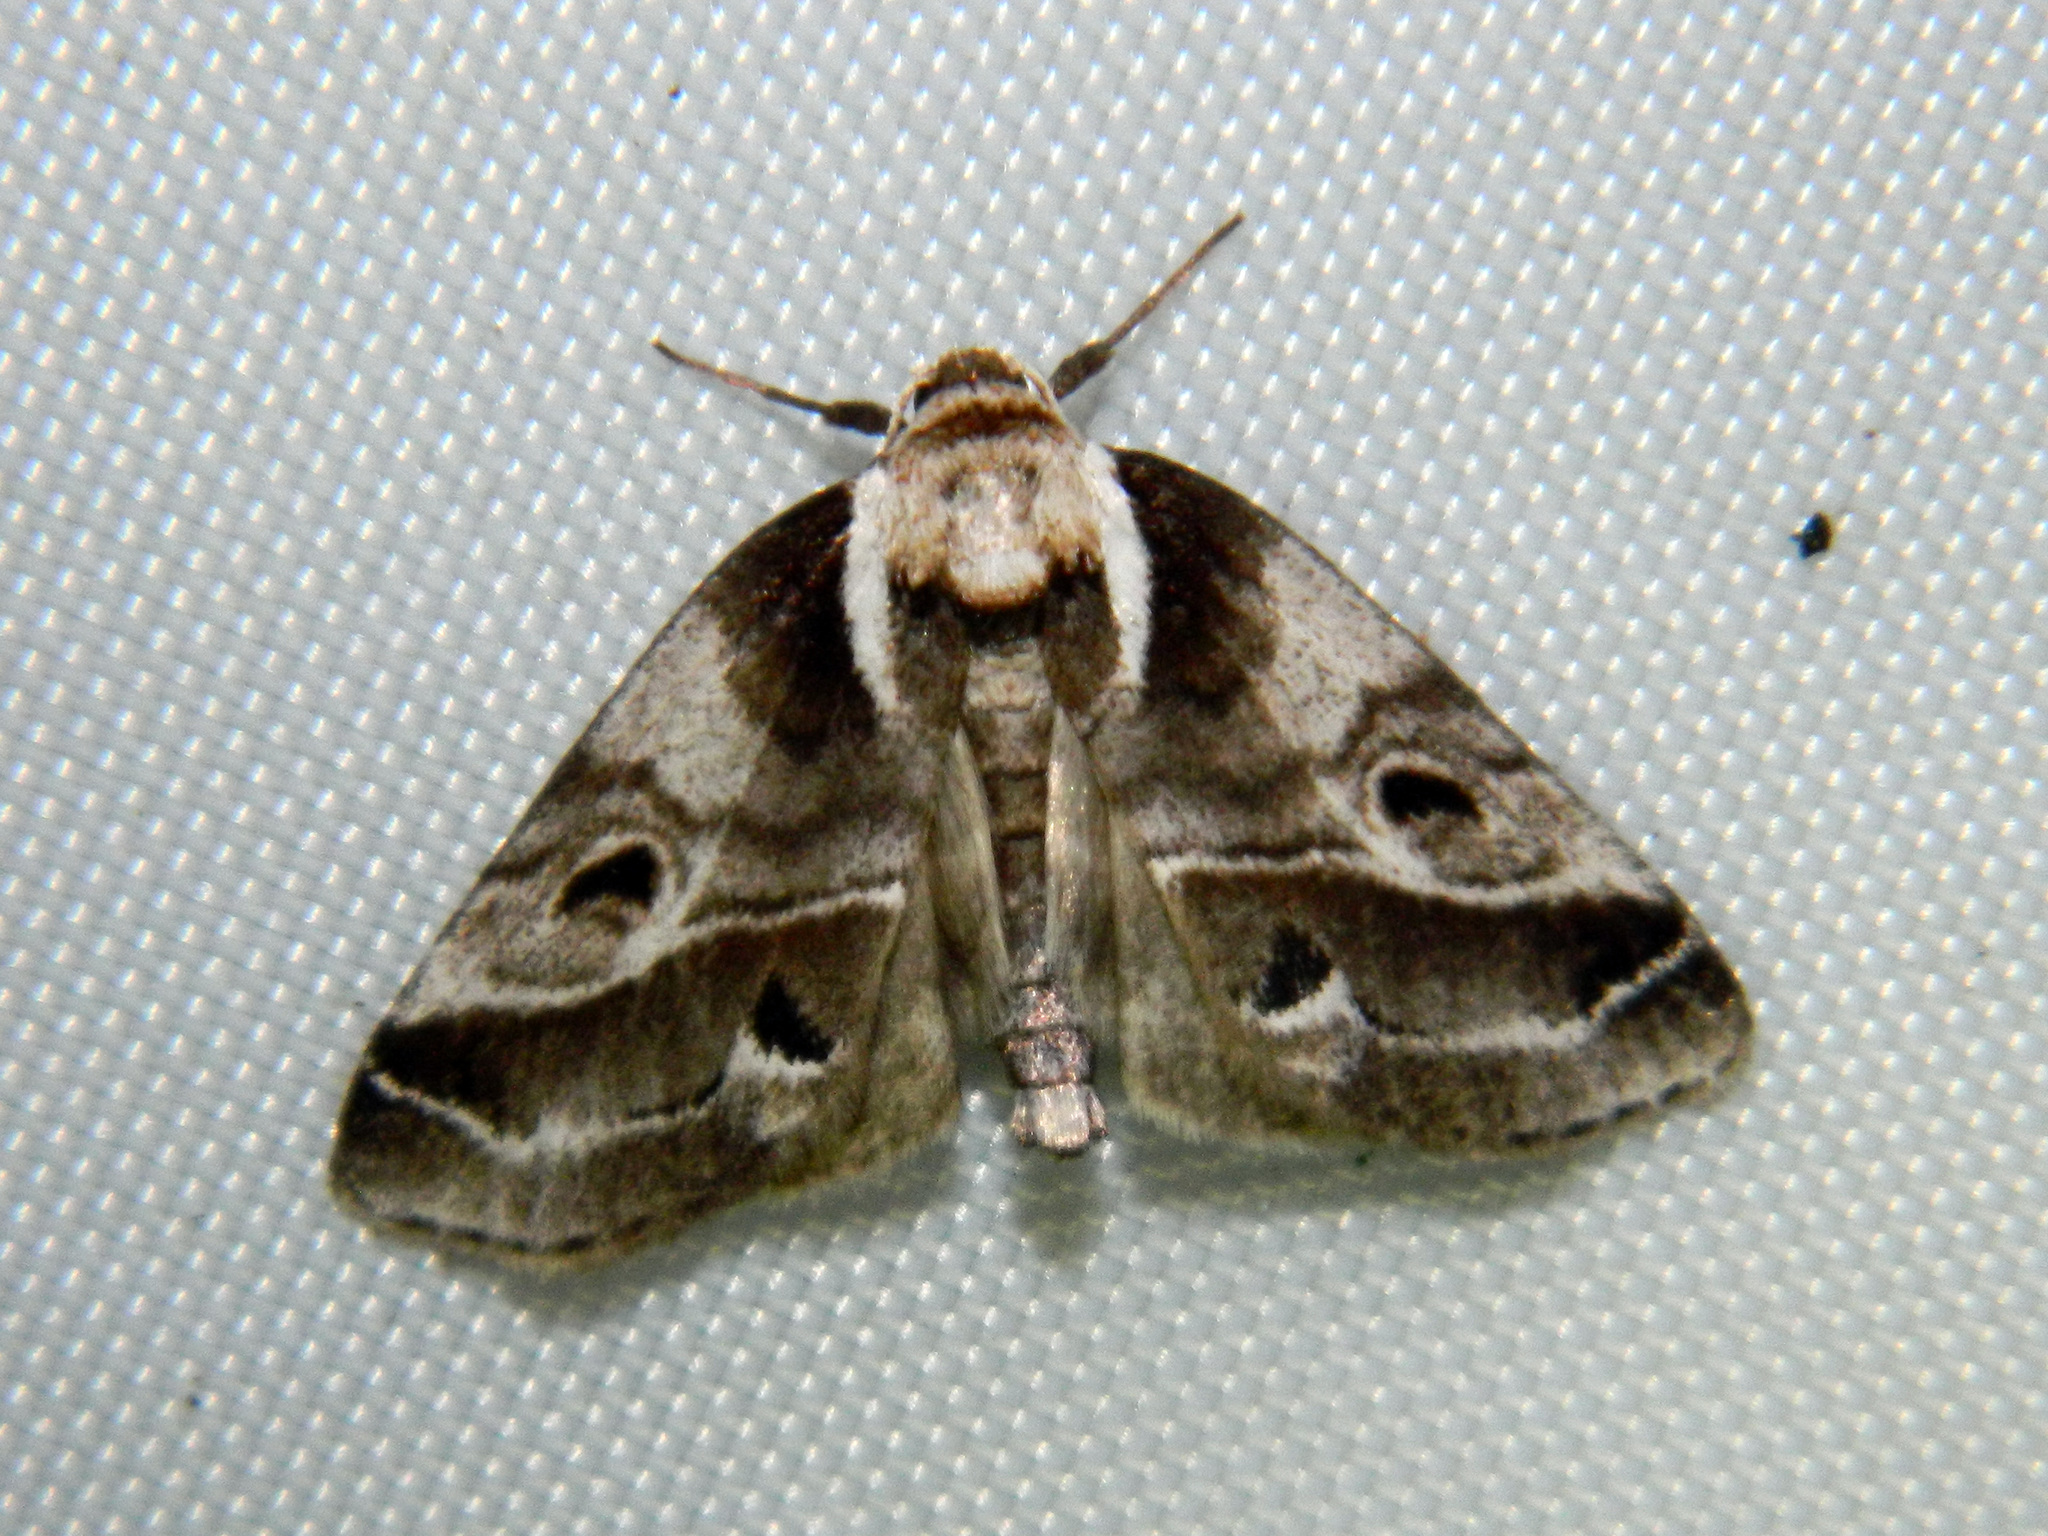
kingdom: Animalia
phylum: Arthropoda
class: Insecta
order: Lepidoptera
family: Nolidae
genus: Baileya
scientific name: Baileya doubledayi
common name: Doubleday's baileya moth
